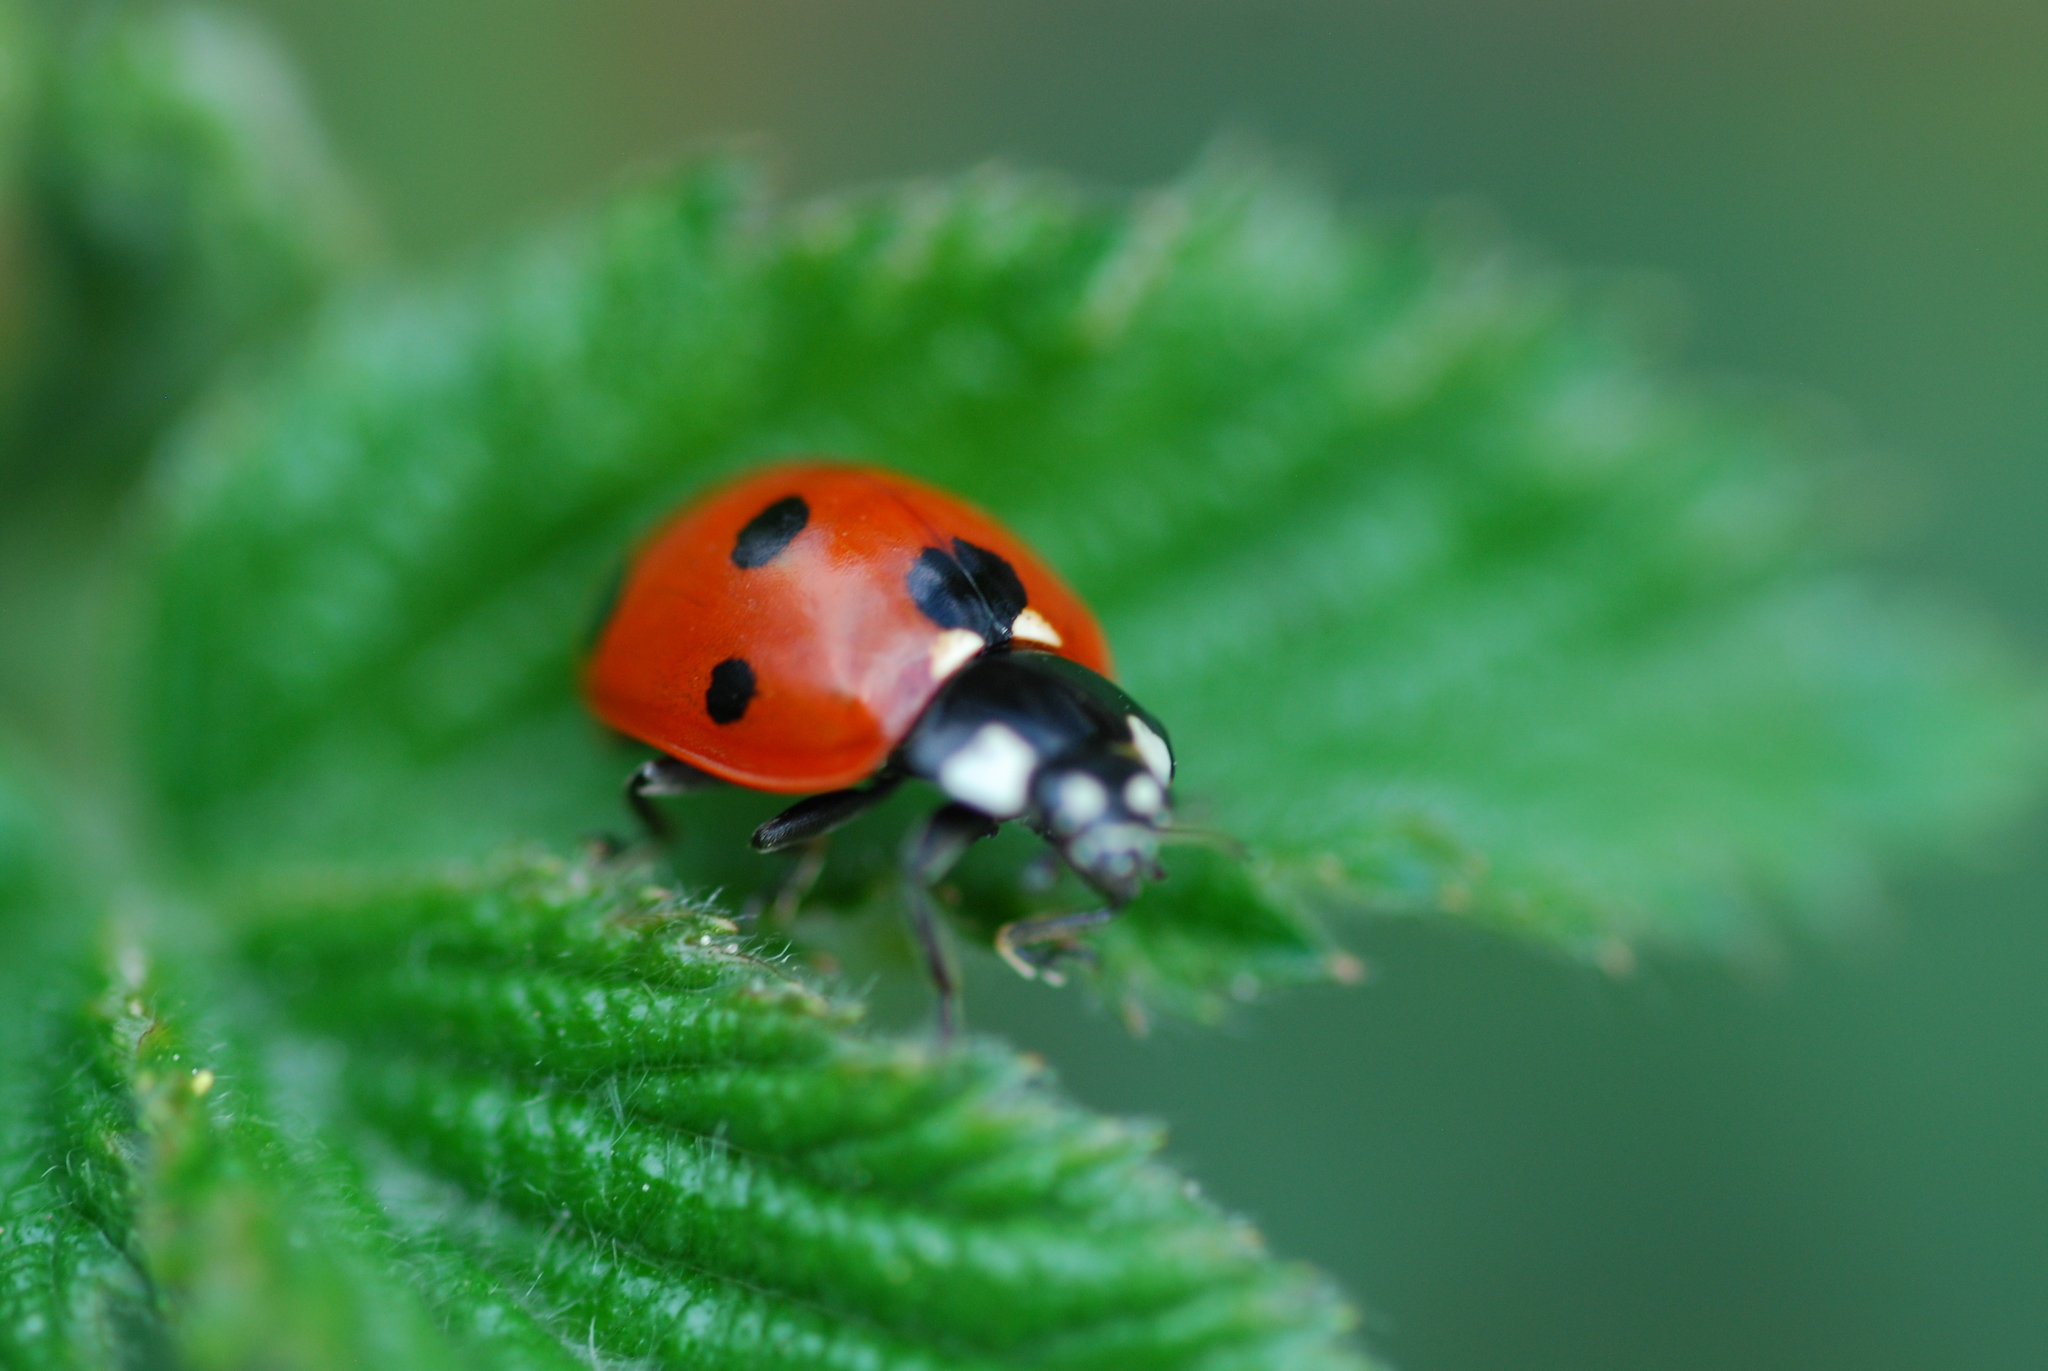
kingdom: Animalia
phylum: Arthropoda
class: Insecta
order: Coleoptera
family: Coccinellidae
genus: Coccinella
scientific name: Coccinella septempunctata
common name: Sevenspotted lady beetle
